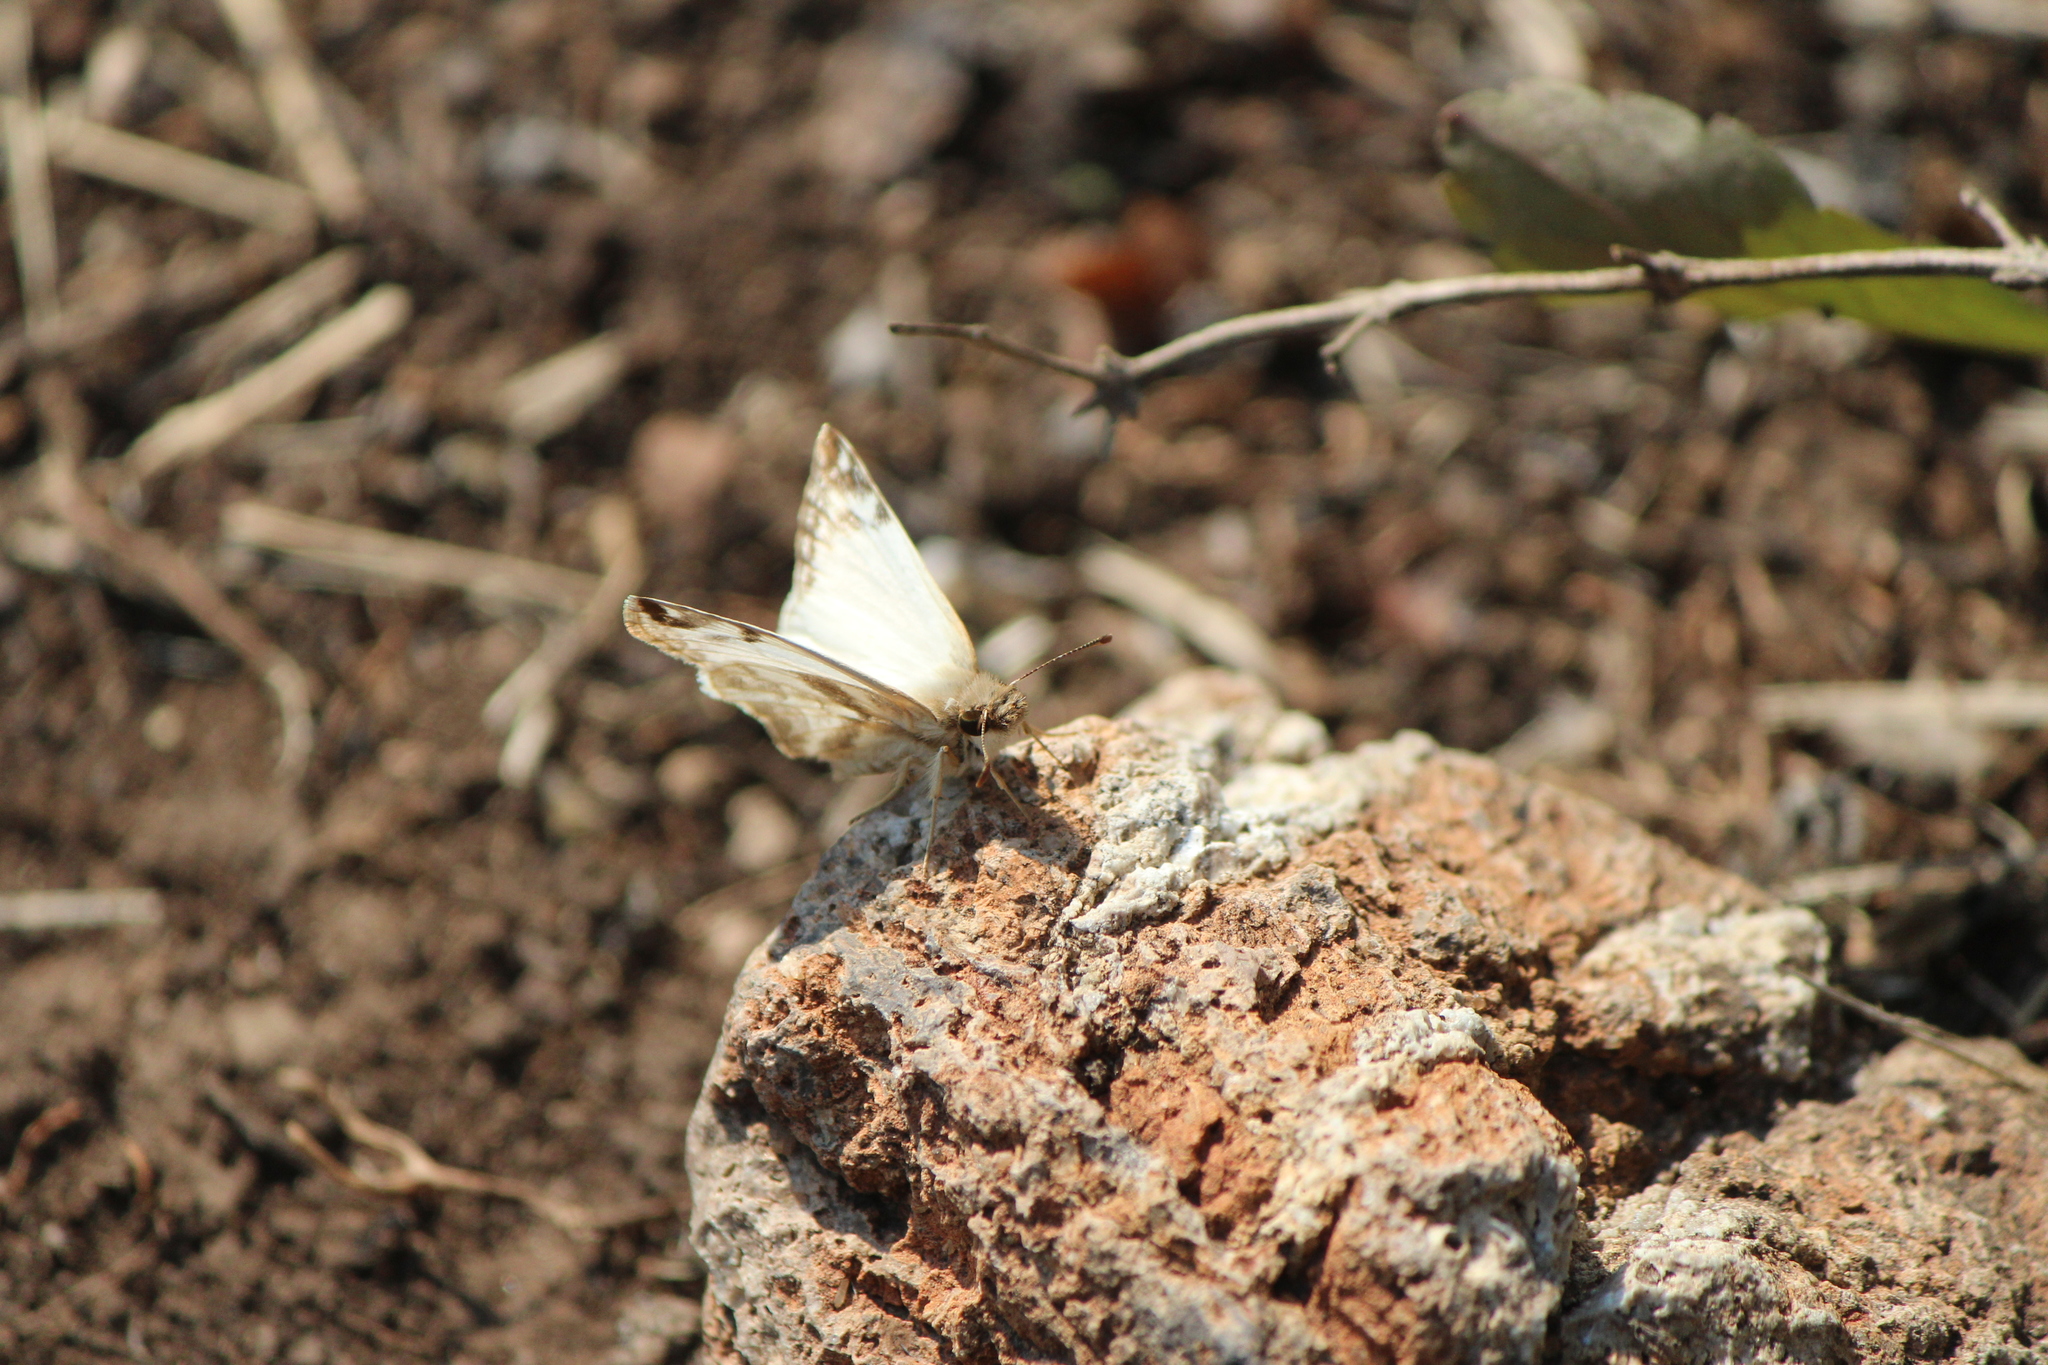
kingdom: Animalia
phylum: Arthropoda
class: Insecta
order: Lepidoptera
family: Hesperiidae
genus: Heliopetes
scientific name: Heliopetes laviana
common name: Laviana white-skipper
